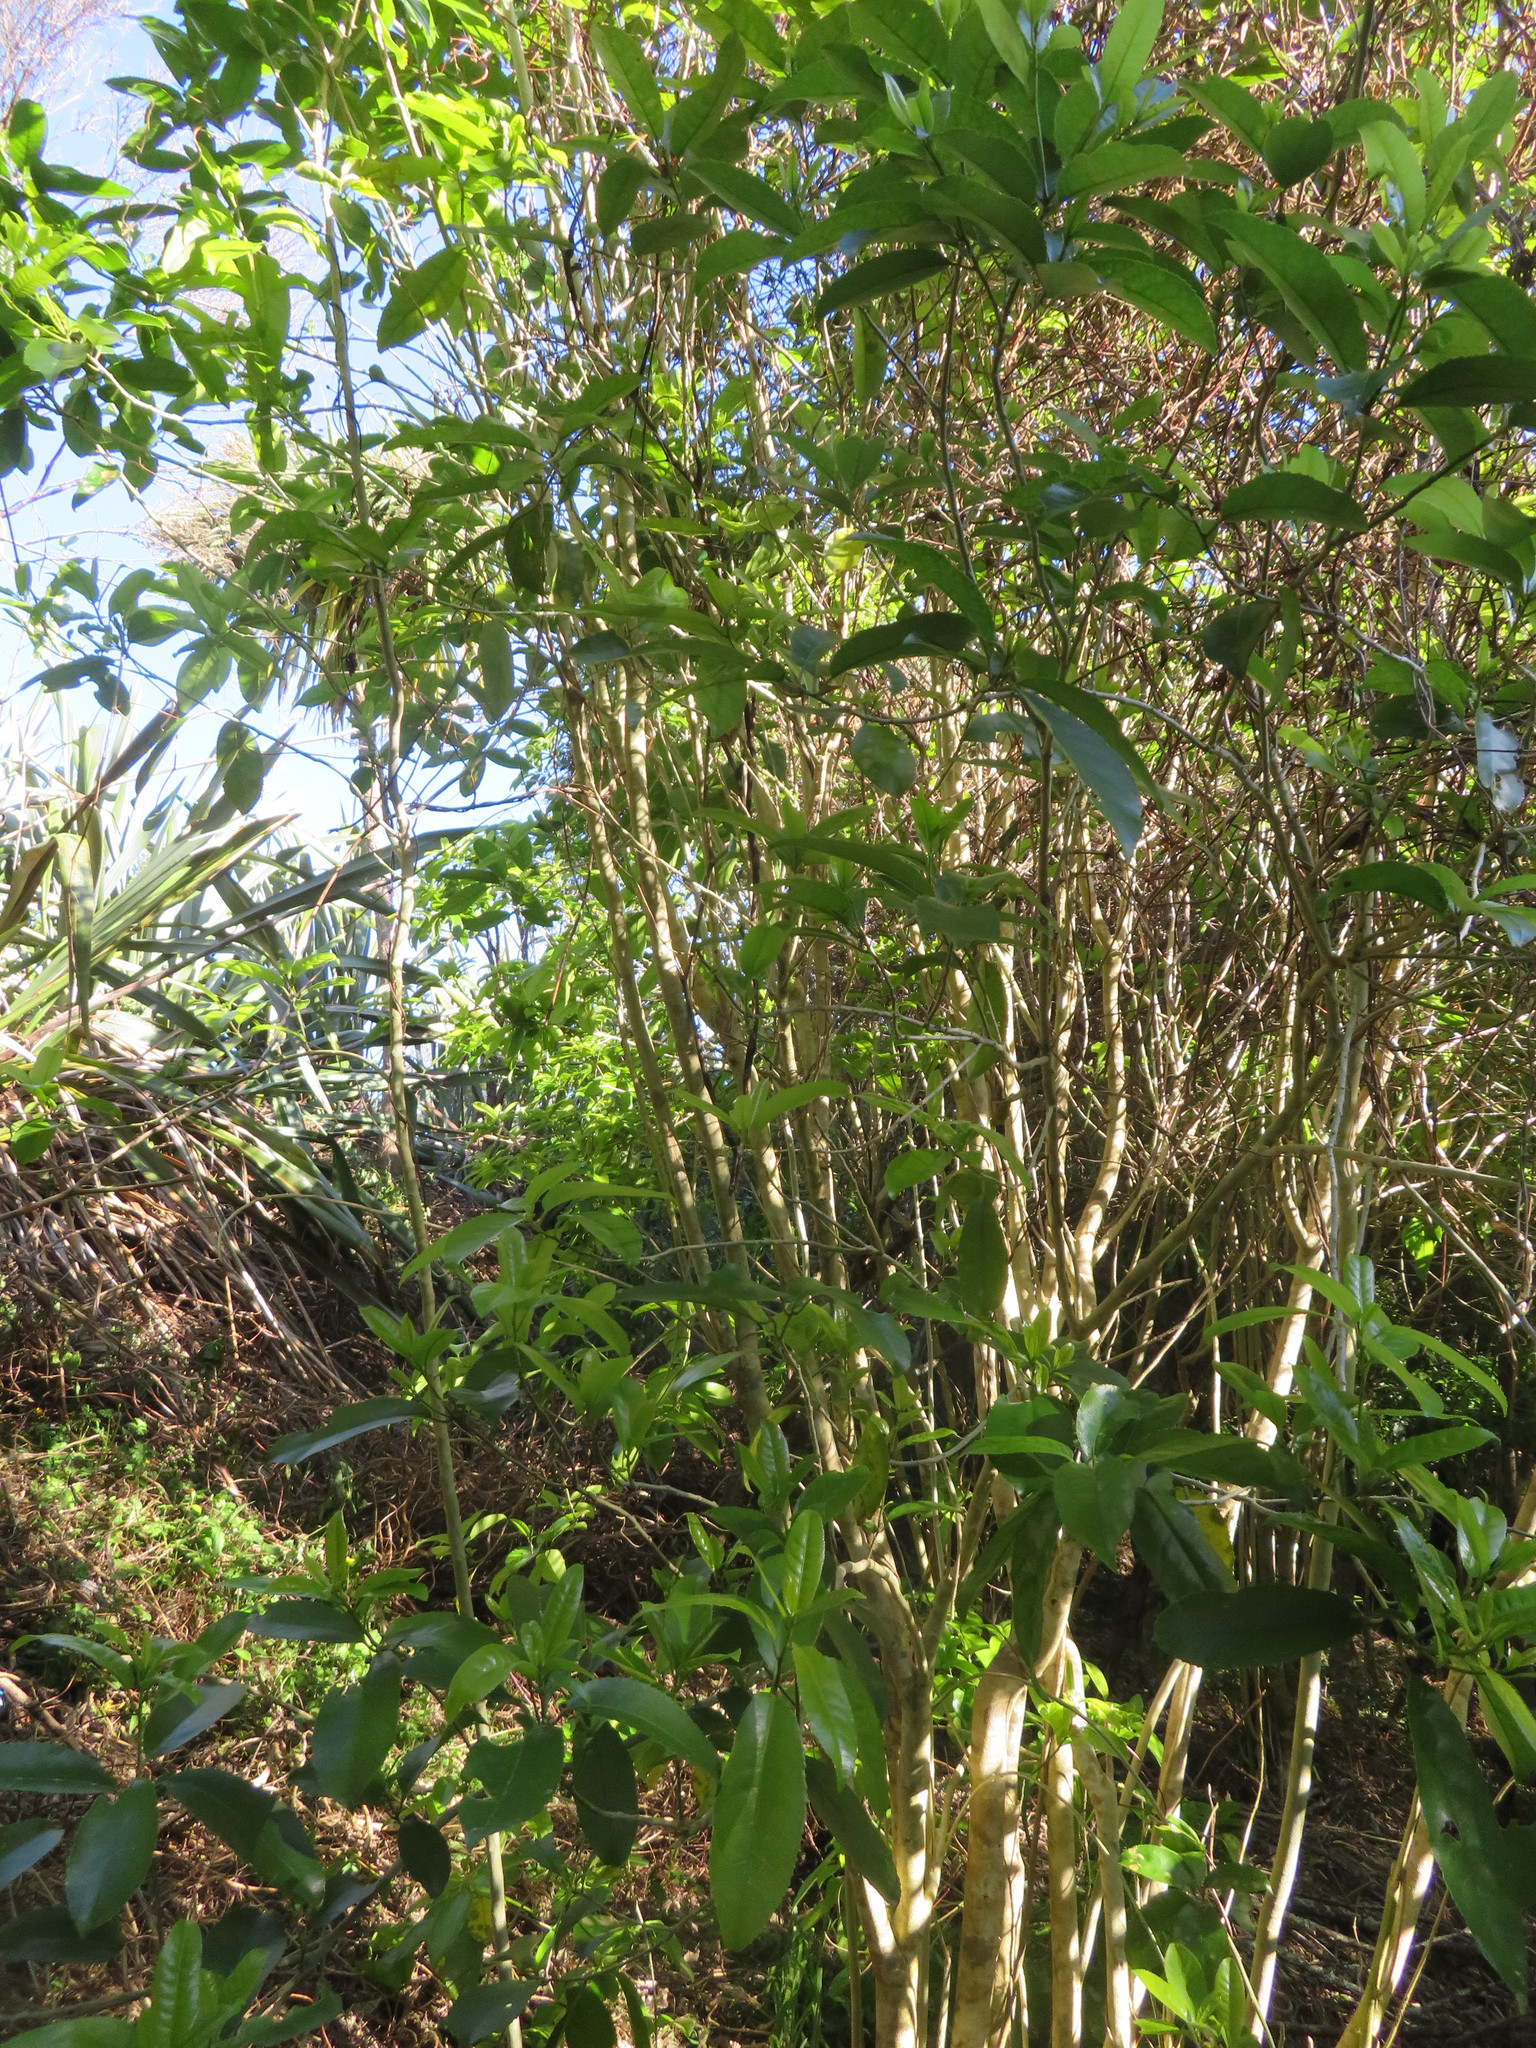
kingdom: Plantae
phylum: Tracheophyta
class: Magnoliopsida
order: Malpighiales
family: Violaceae
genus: Melicytus
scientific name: Melicytus ramiflorus
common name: Mahoe
